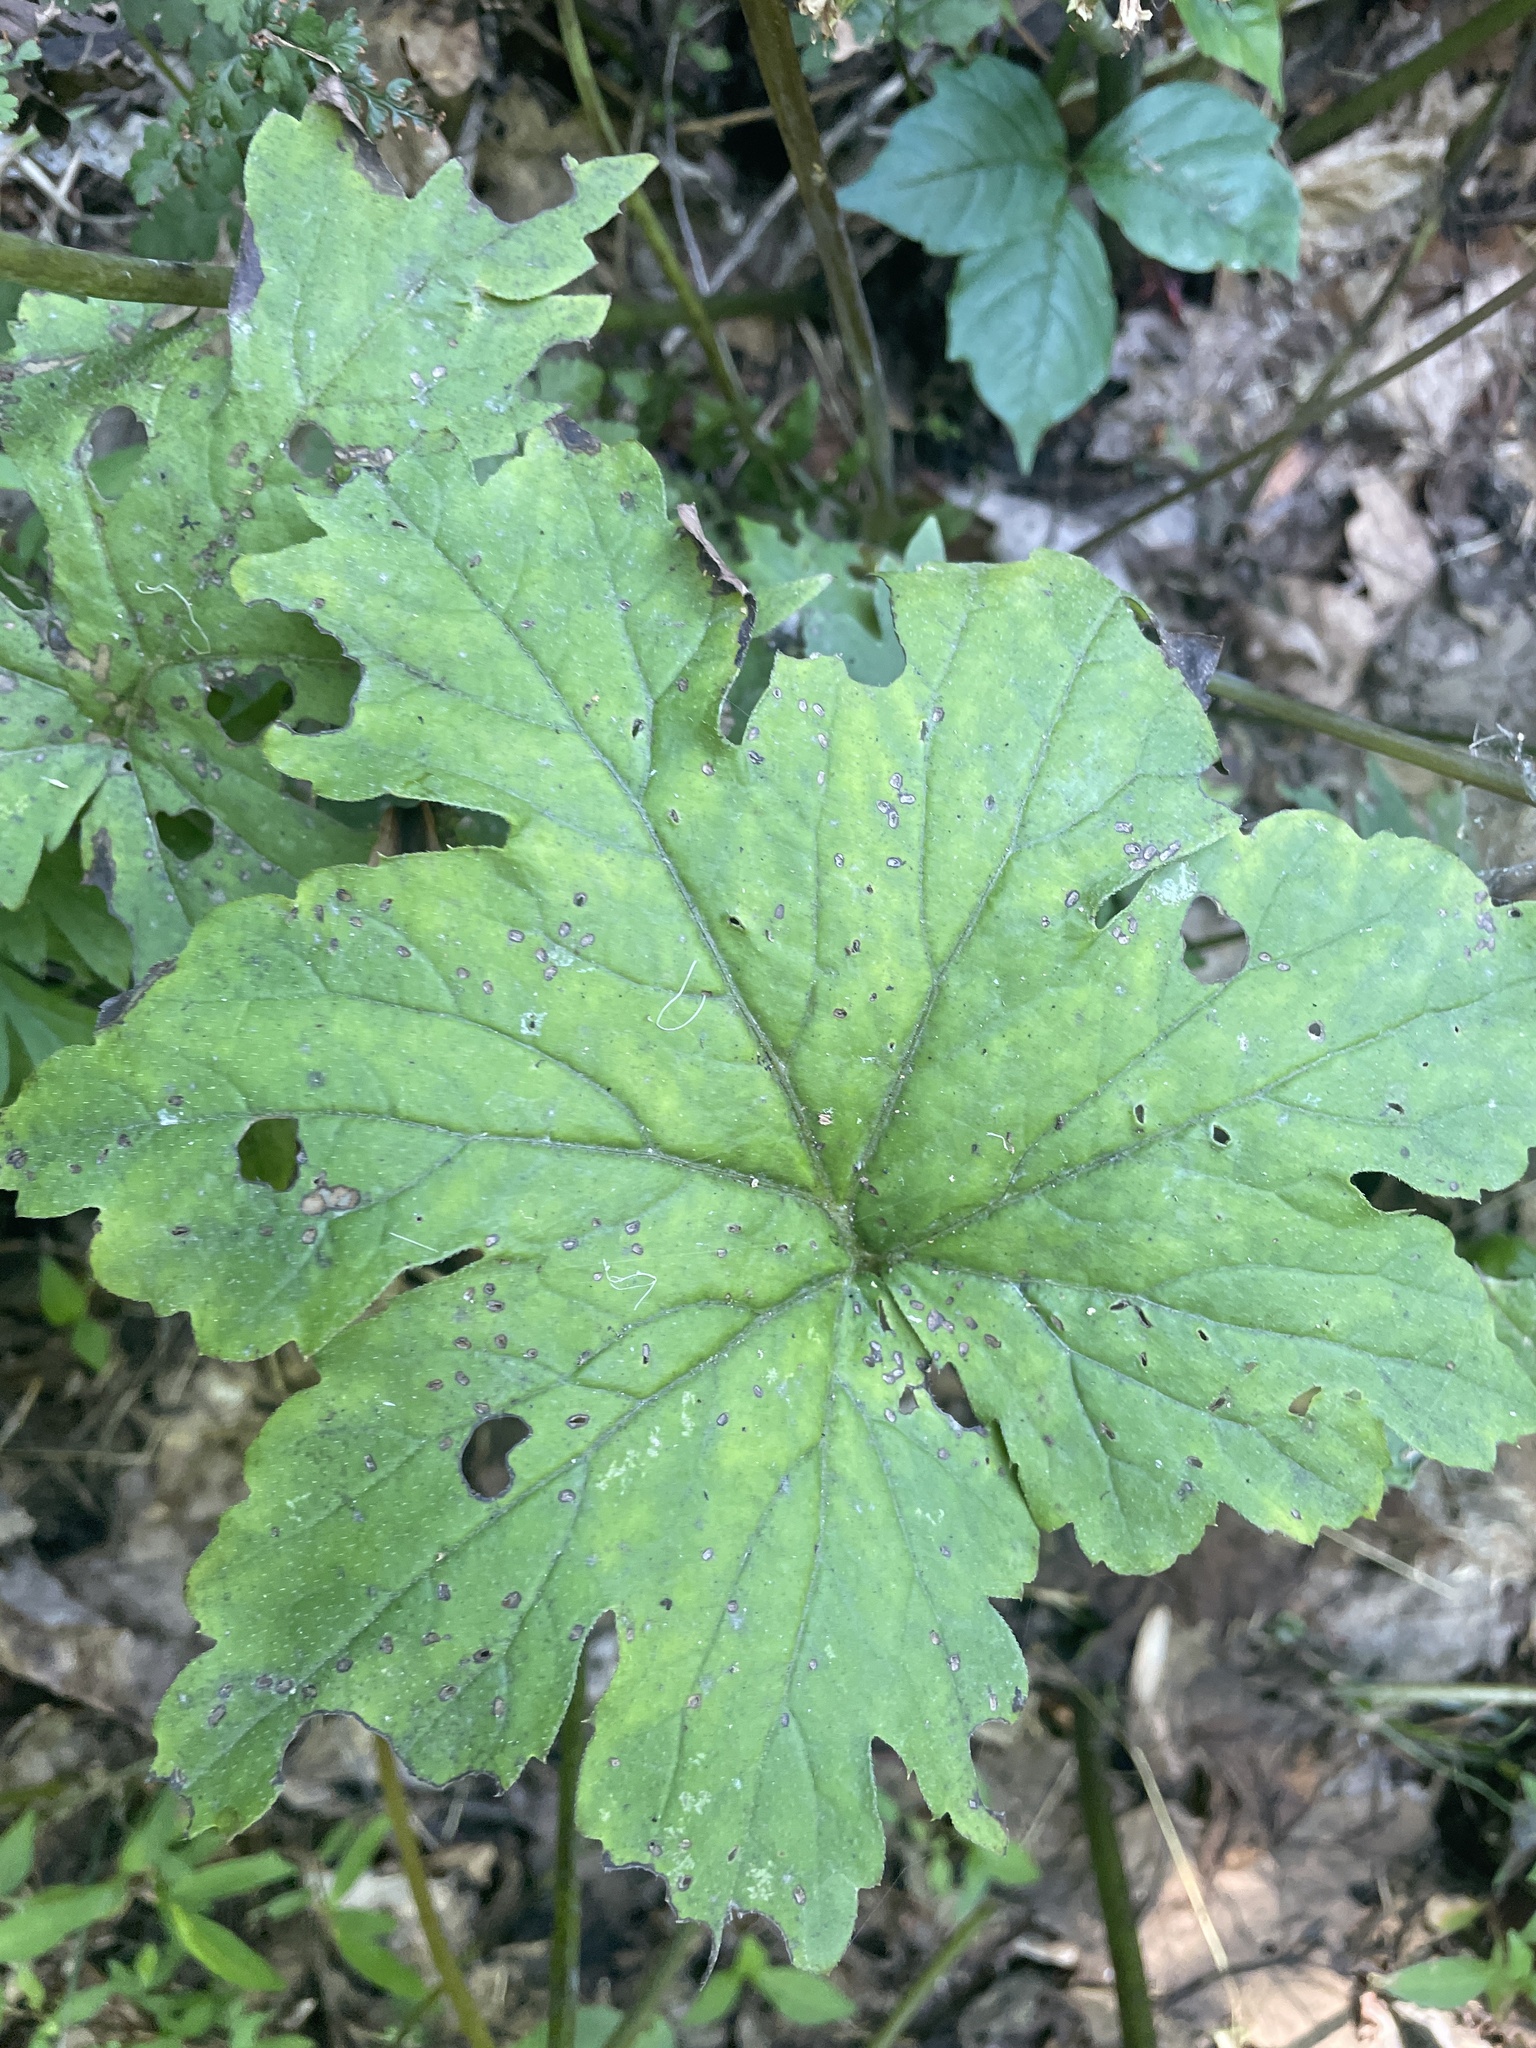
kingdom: Plantae
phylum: Tracheophyta
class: Magnoliopsida
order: Boraginales
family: Hydrophyllaceae
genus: Hydrophyllum
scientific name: Hydrophyllum canadense
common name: Canada waterleaf
